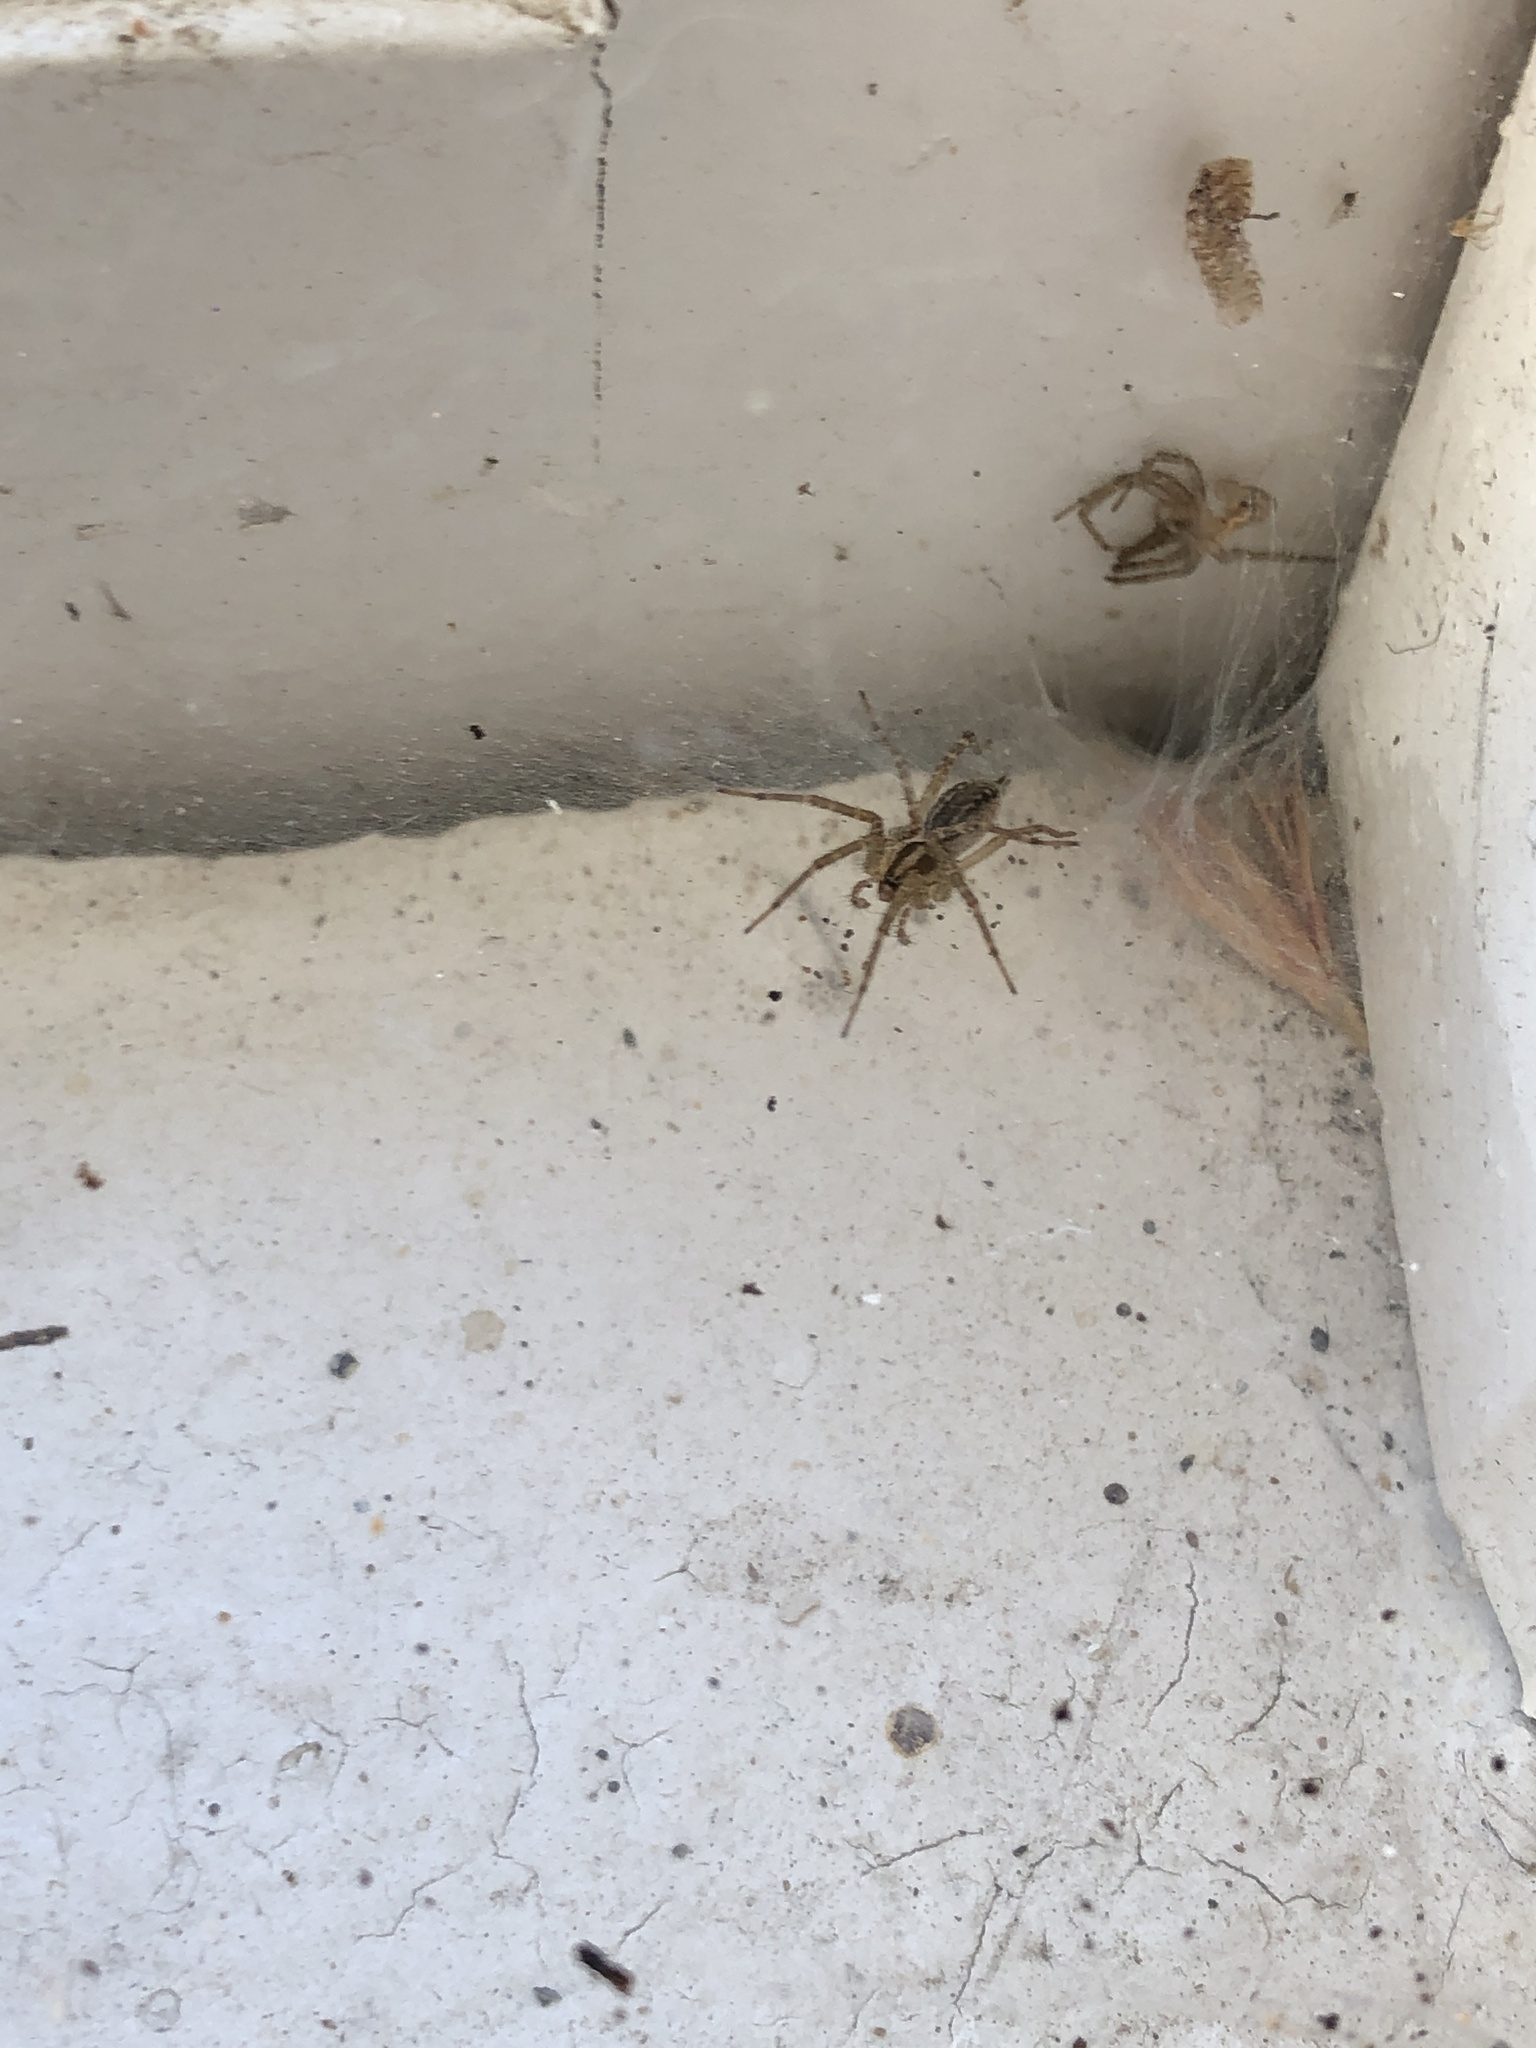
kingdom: Animalia
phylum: Arthropoda
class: Arachnida
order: Araneae
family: Agelenidae
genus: Agelenopsis
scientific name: Agelenopsis
